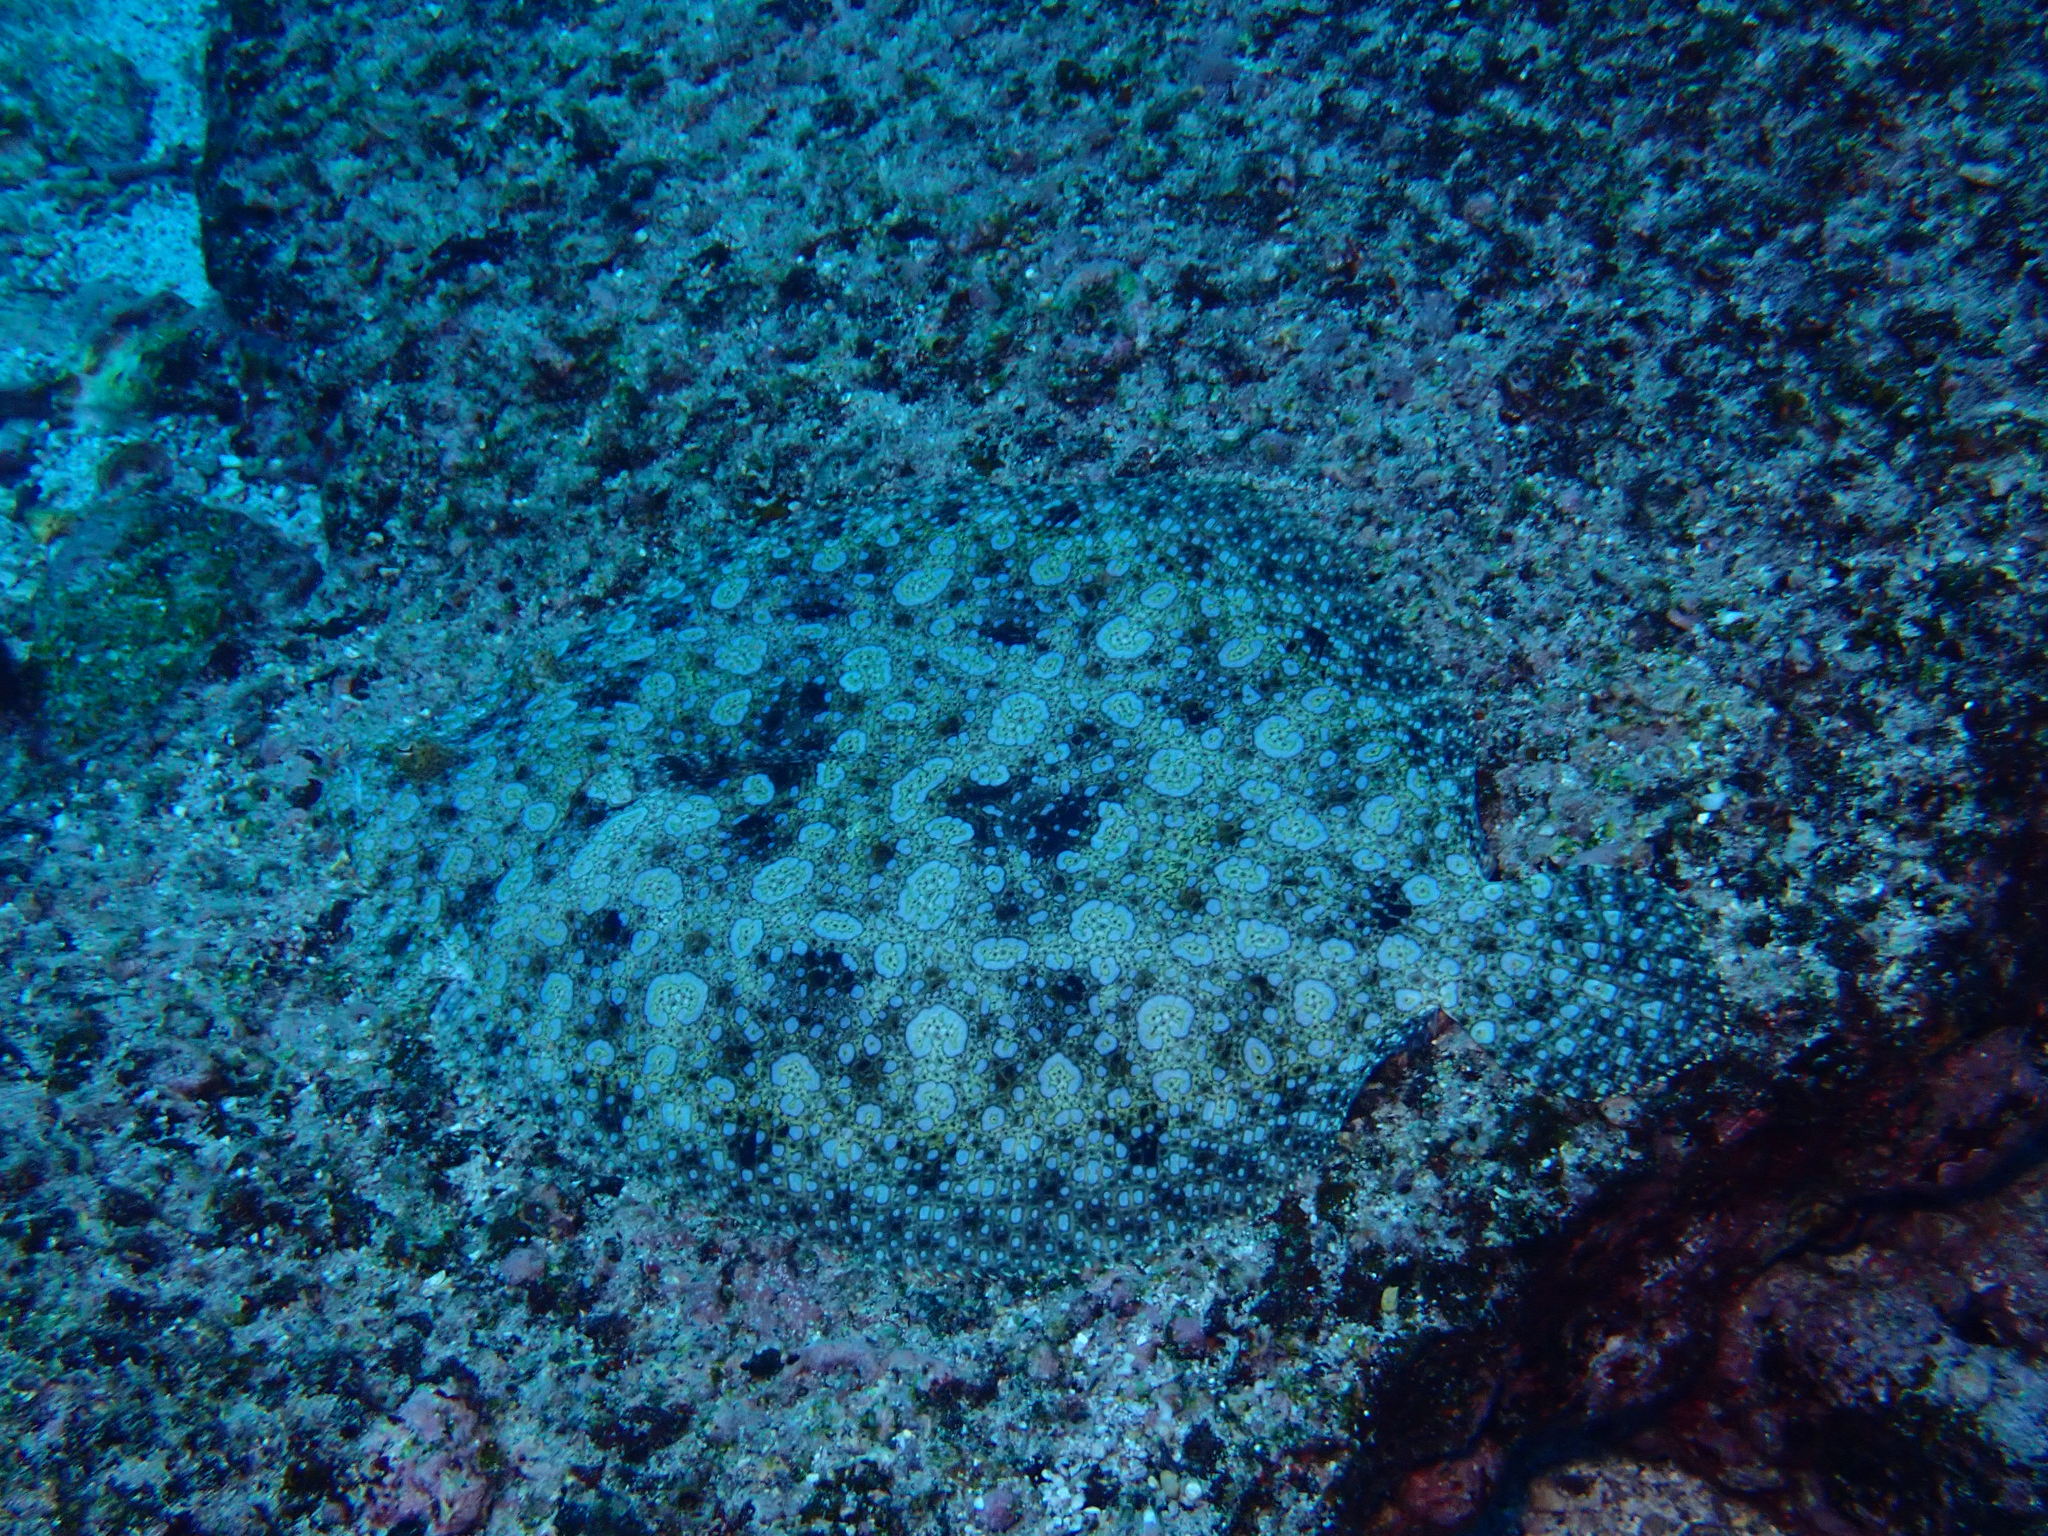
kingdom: Animalia
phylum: Chordata
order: Pleuronectiformes
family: Bothidae
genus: Bothus
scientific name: Bothus mancus
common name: Flowery flounder
